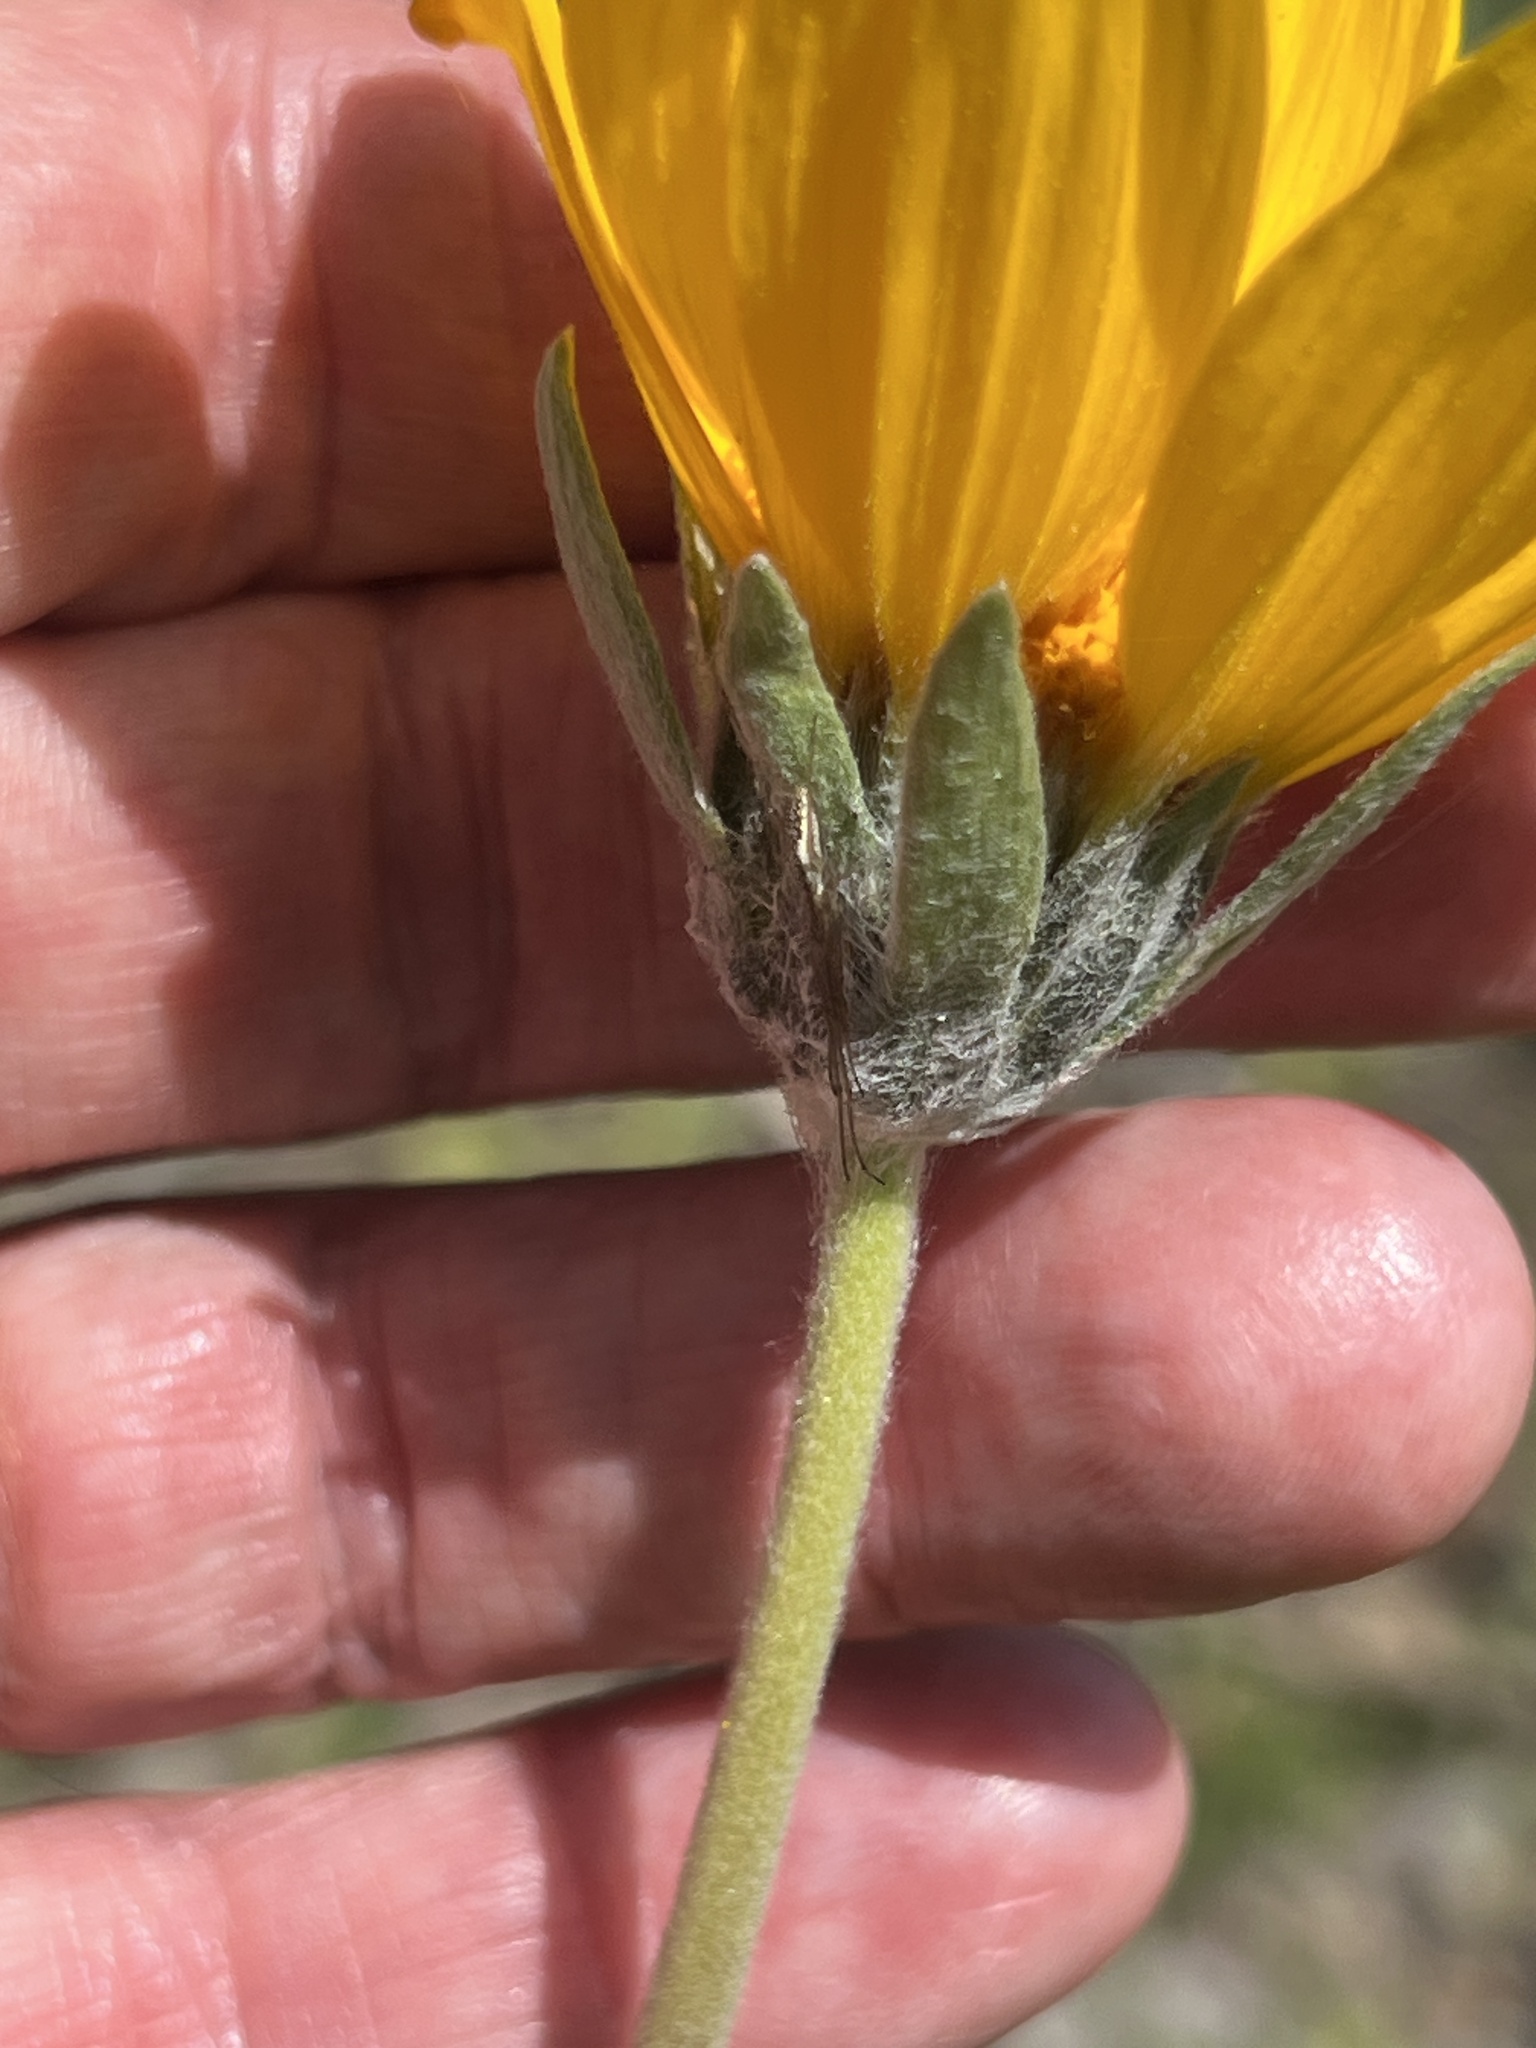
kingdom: Plantae
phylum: Tracheophyta
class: Magnoliopsida
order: Asterales
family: Asteraceae
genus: Balsamorhiza
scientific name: Balsamorhiza hookeri
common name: Hooker's balsamroot
